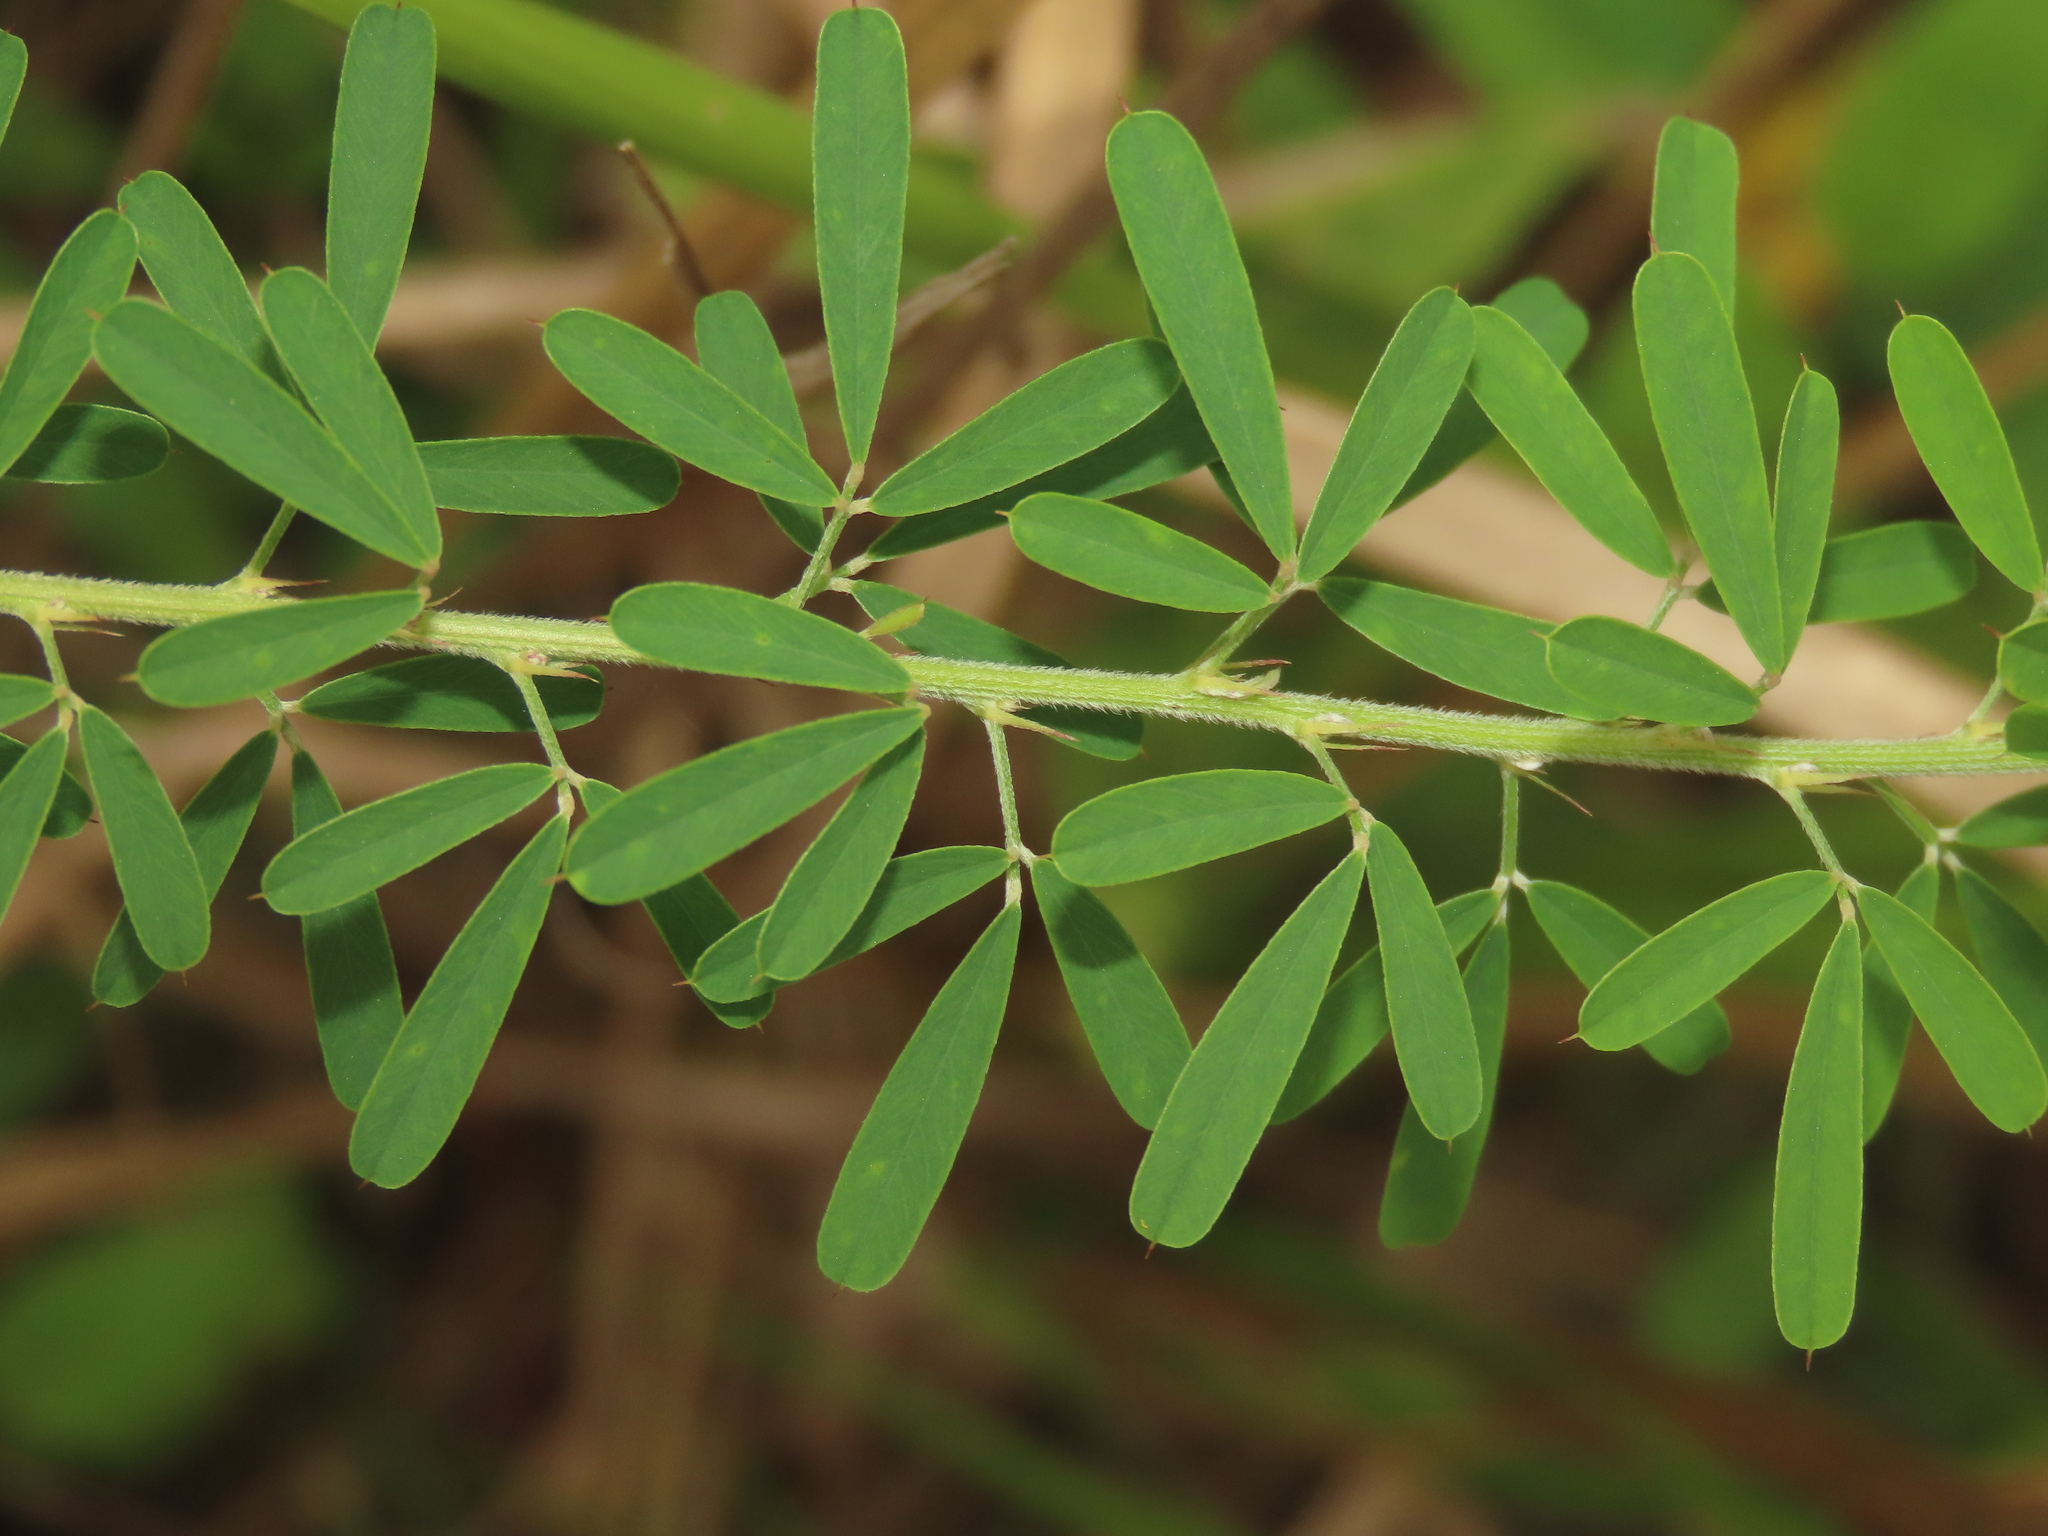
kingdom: Plantae
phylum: Tracheophyta
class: Magnoliopsida
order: Fabales
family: Fabaceae
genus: Lespedeza
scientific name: Lespedeza cuneata
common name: Chinese bush-clover
